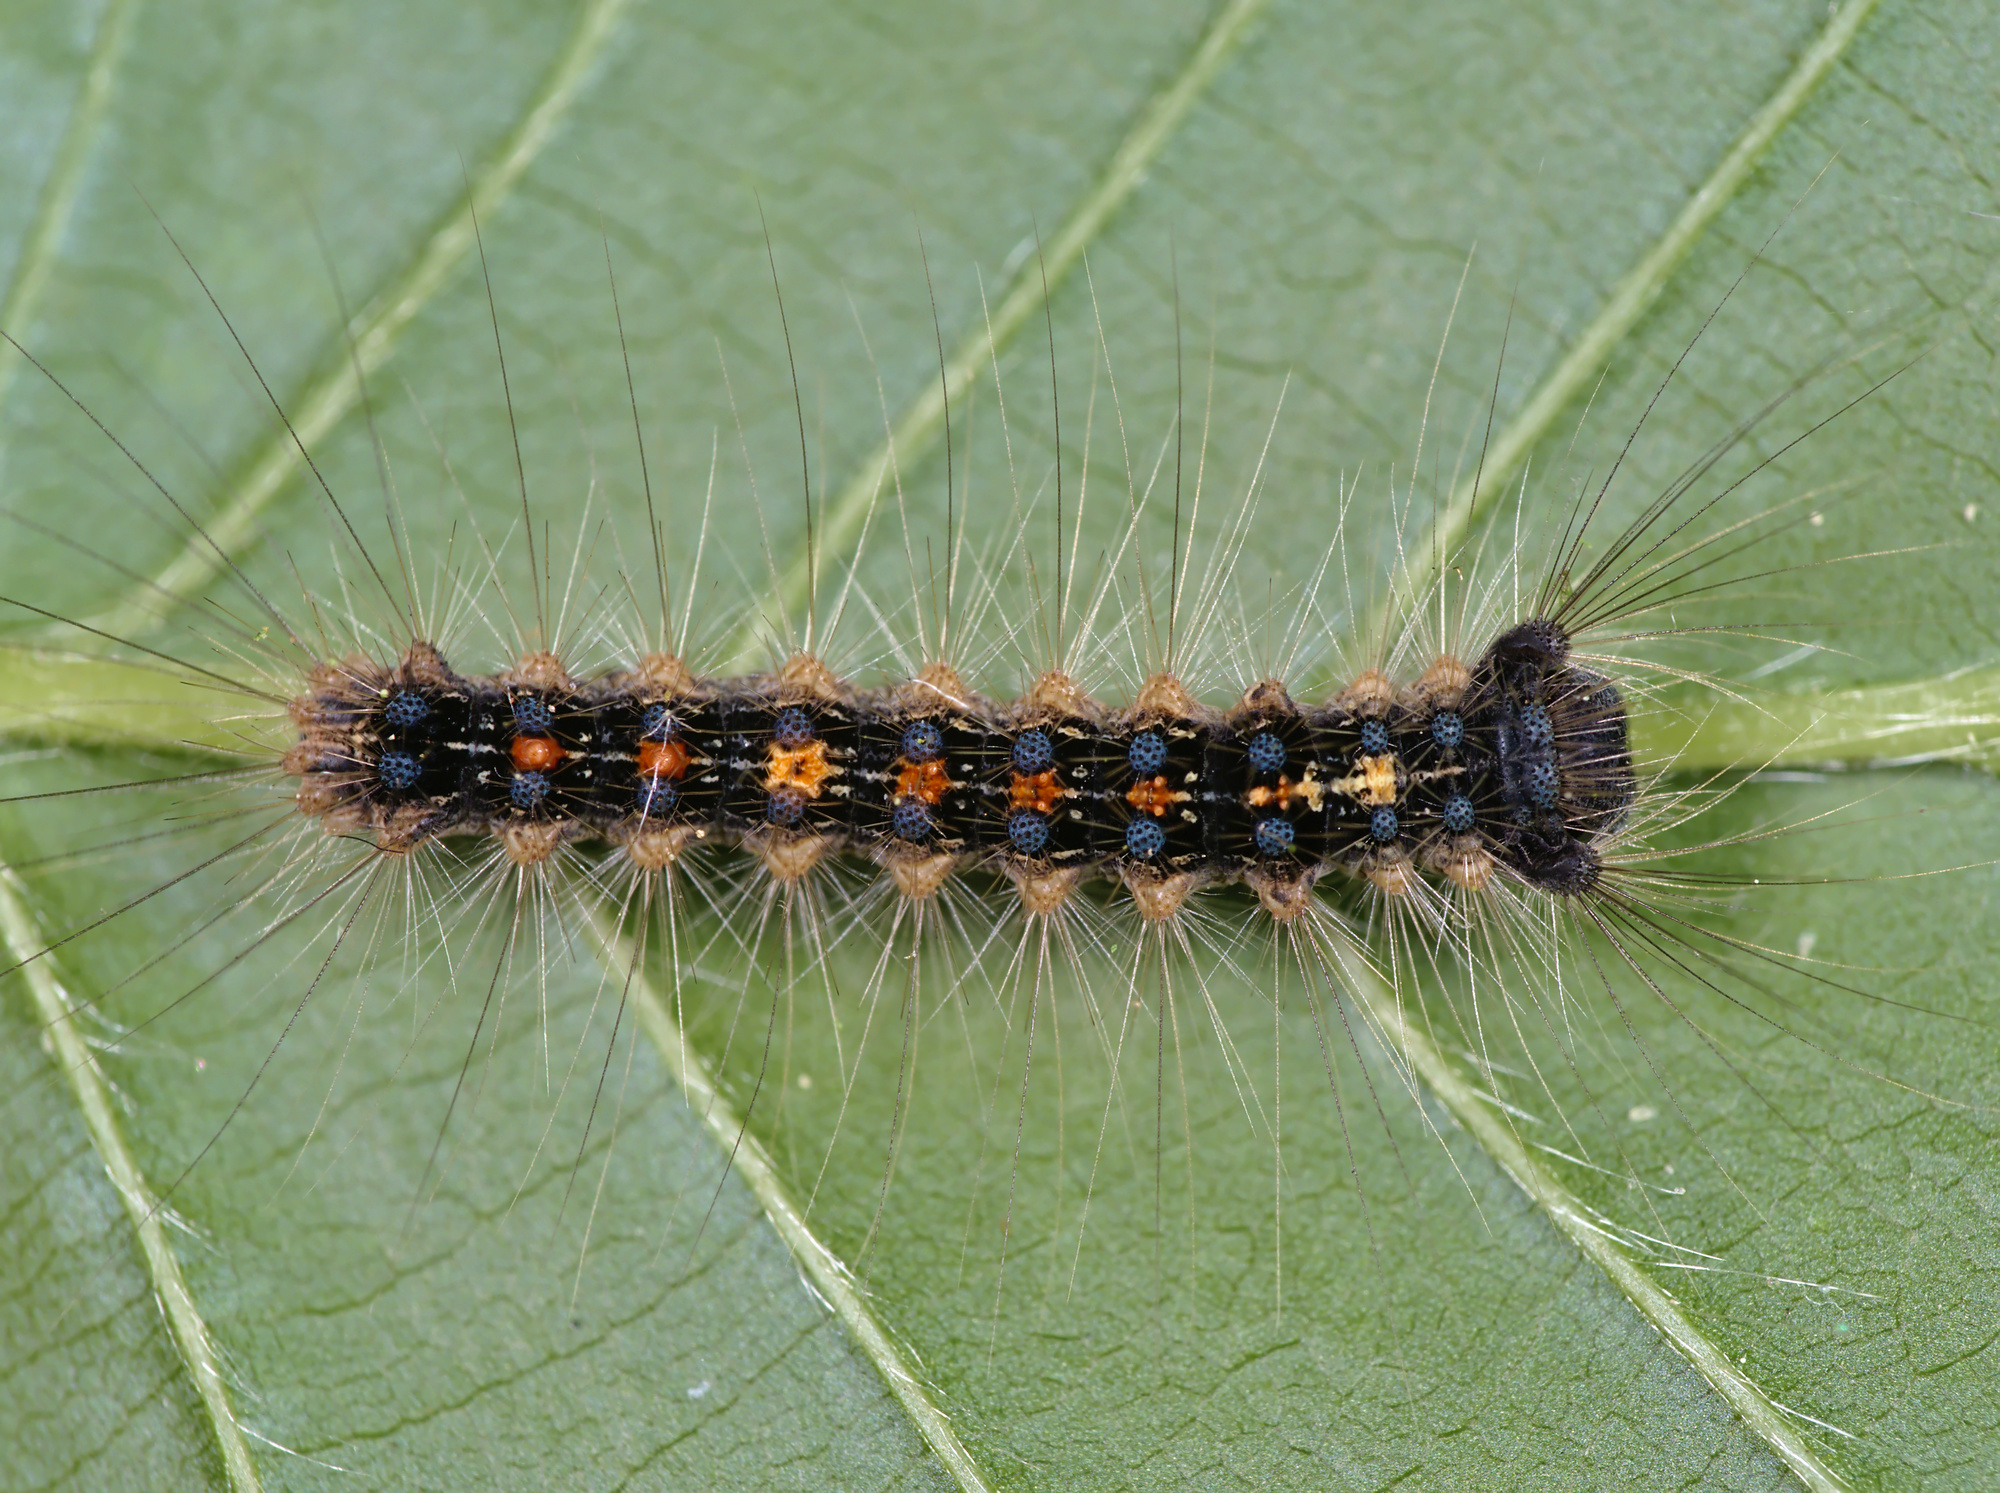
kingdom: Animalia
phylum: Arthropoda
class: Insecta
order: Lepidoptera
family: Erebidae
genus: Lymantria
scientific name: Lymantria dispar
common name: Gypsy moth
